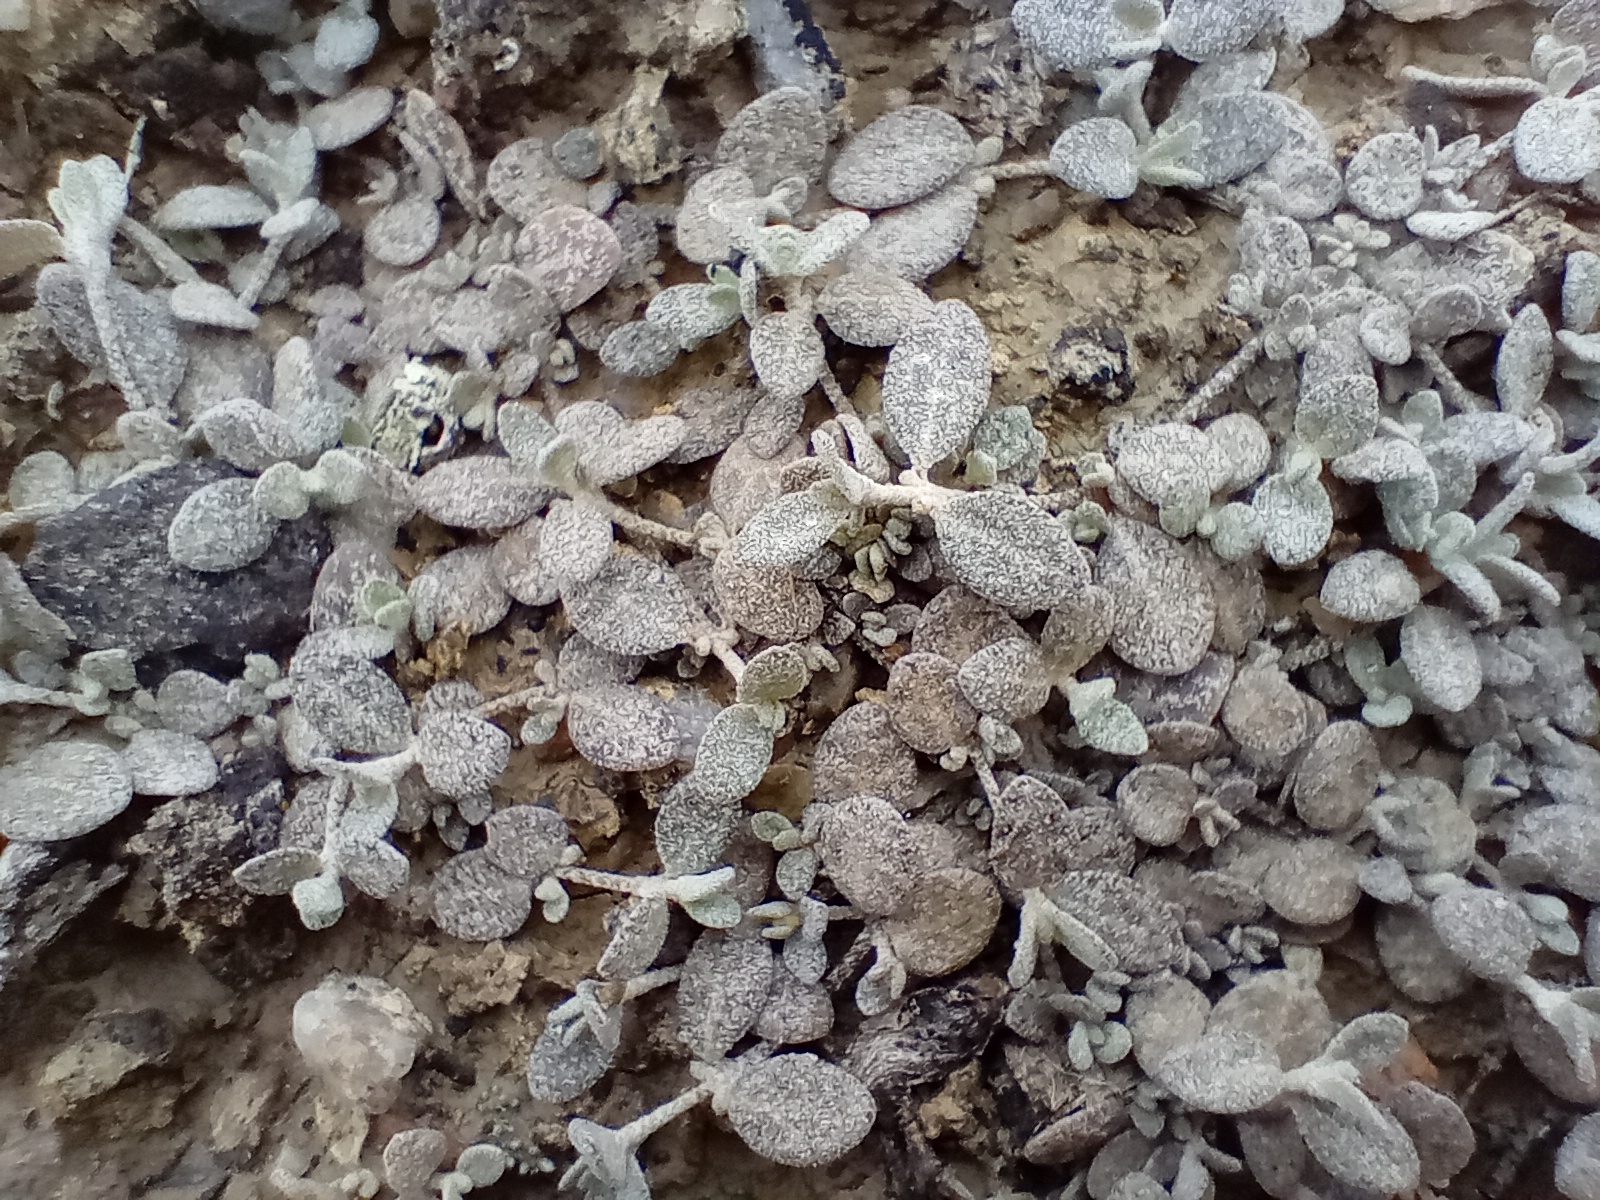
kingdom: Plantae
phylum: Tracheophyta
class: Magnoliopsida
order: Caryophyllales
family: Amaranthaceae
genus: Atriplex
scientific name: Atriplex buchananii
